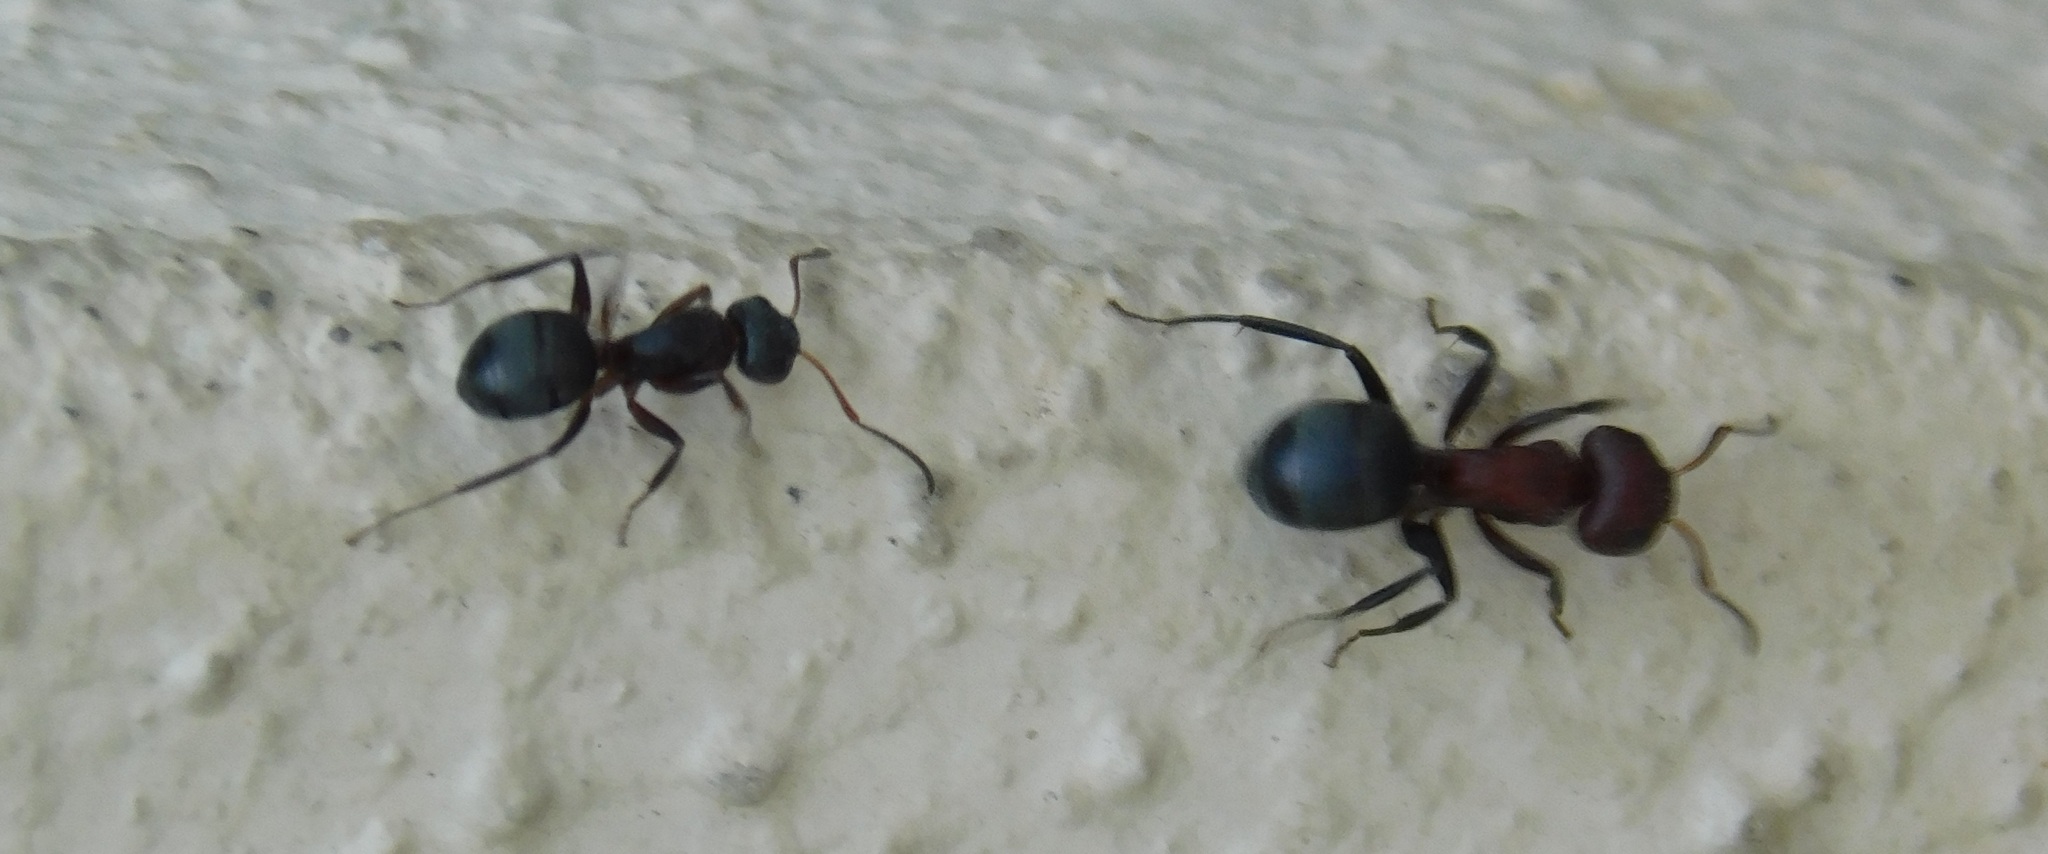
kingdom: Animalia
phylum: Arthropoda
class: Insecta
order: Hymenoptera
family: Formicidae
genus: Camponotus
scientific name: Camponotus planatus
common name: Compact carpenter ant
